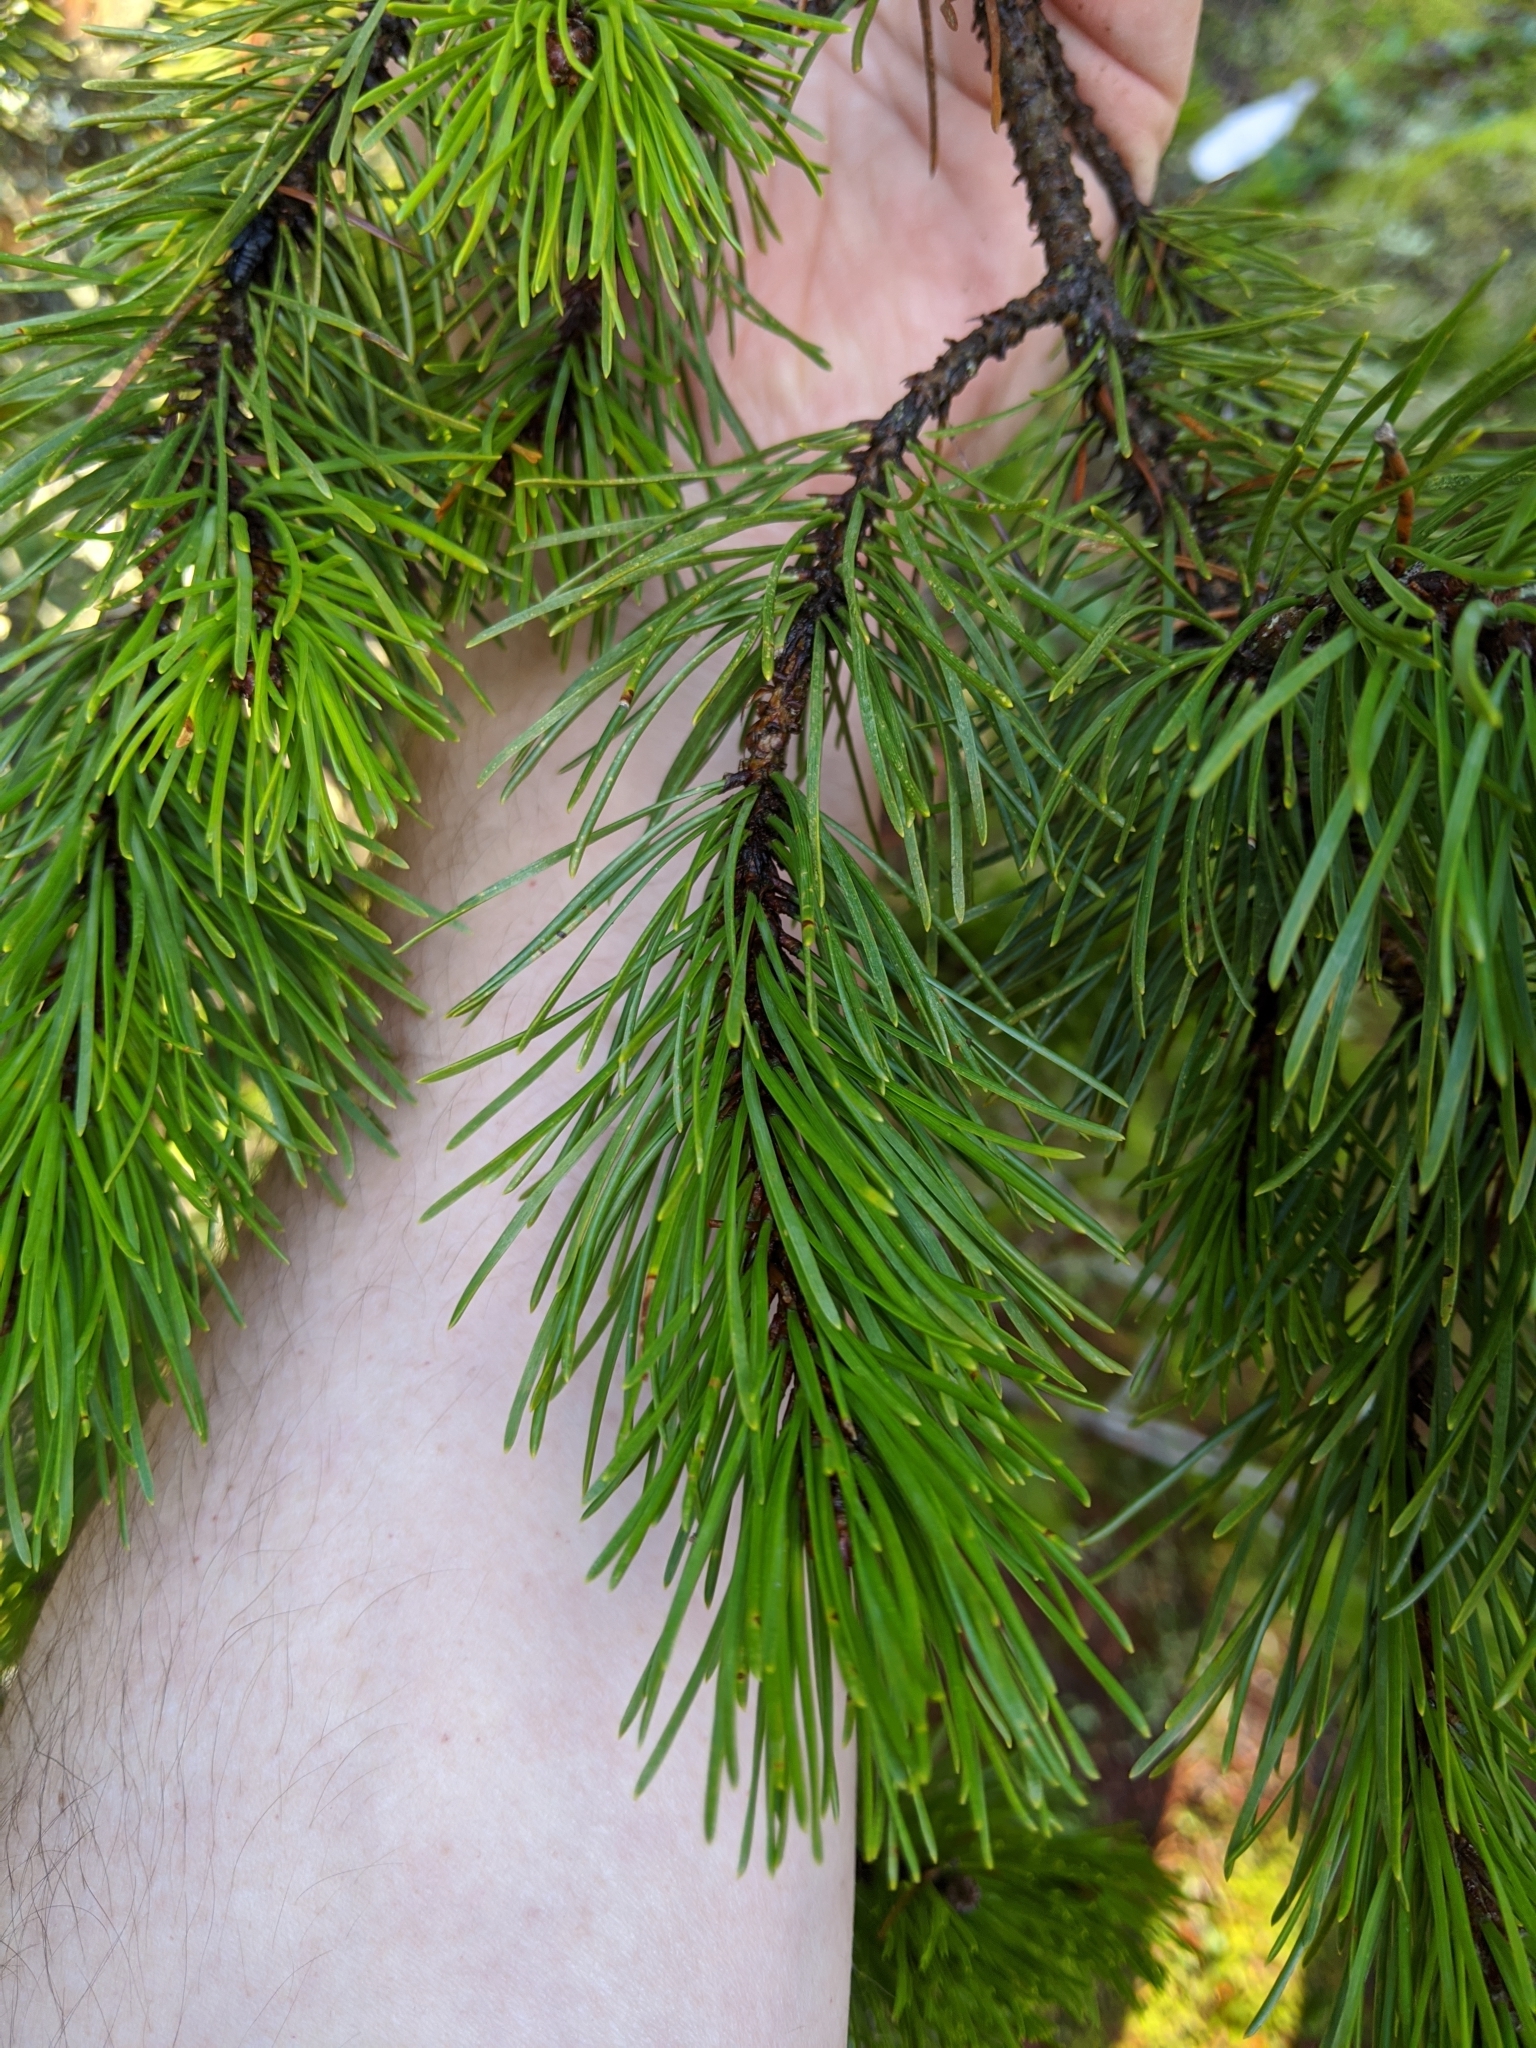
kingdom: Plantae
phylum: Tracheophyta
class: Pinopsida
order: Pinales
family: Pinaceae
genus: Pinus
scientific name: Pinus contorta
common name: Lodgepole pine
